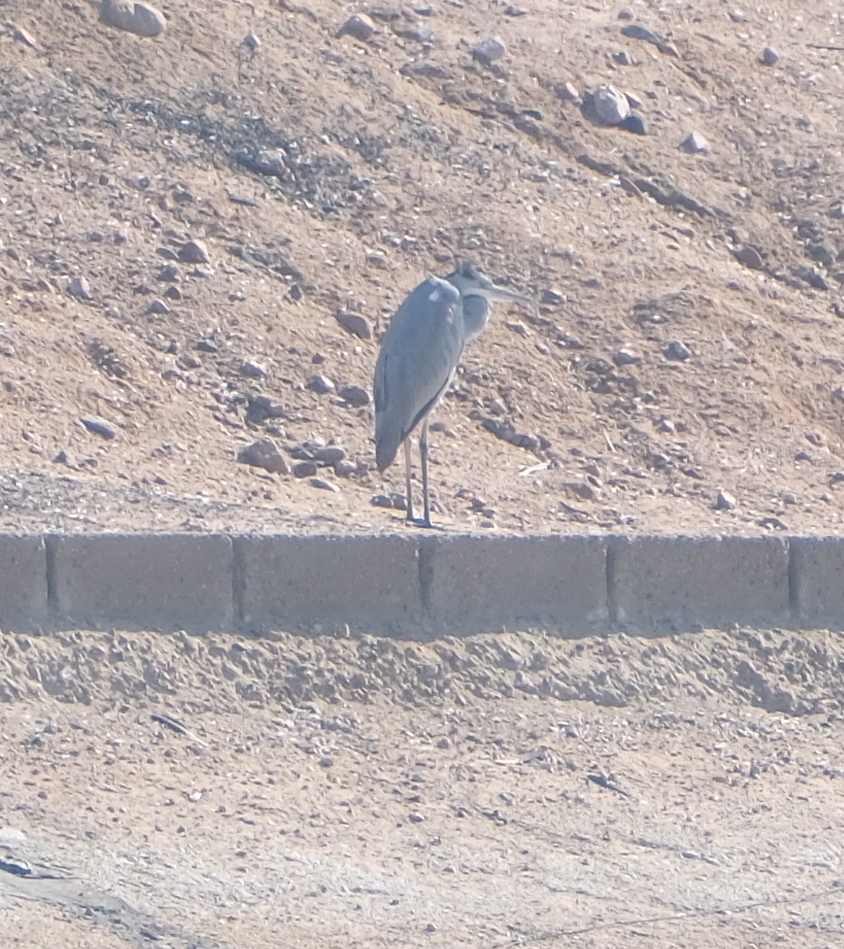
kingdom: Animalia
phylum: Chordata
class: Aves
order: Pelecaniformes
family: Ardeidae
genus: Ardea
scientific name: Ardea cinerea
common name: Grey heron
